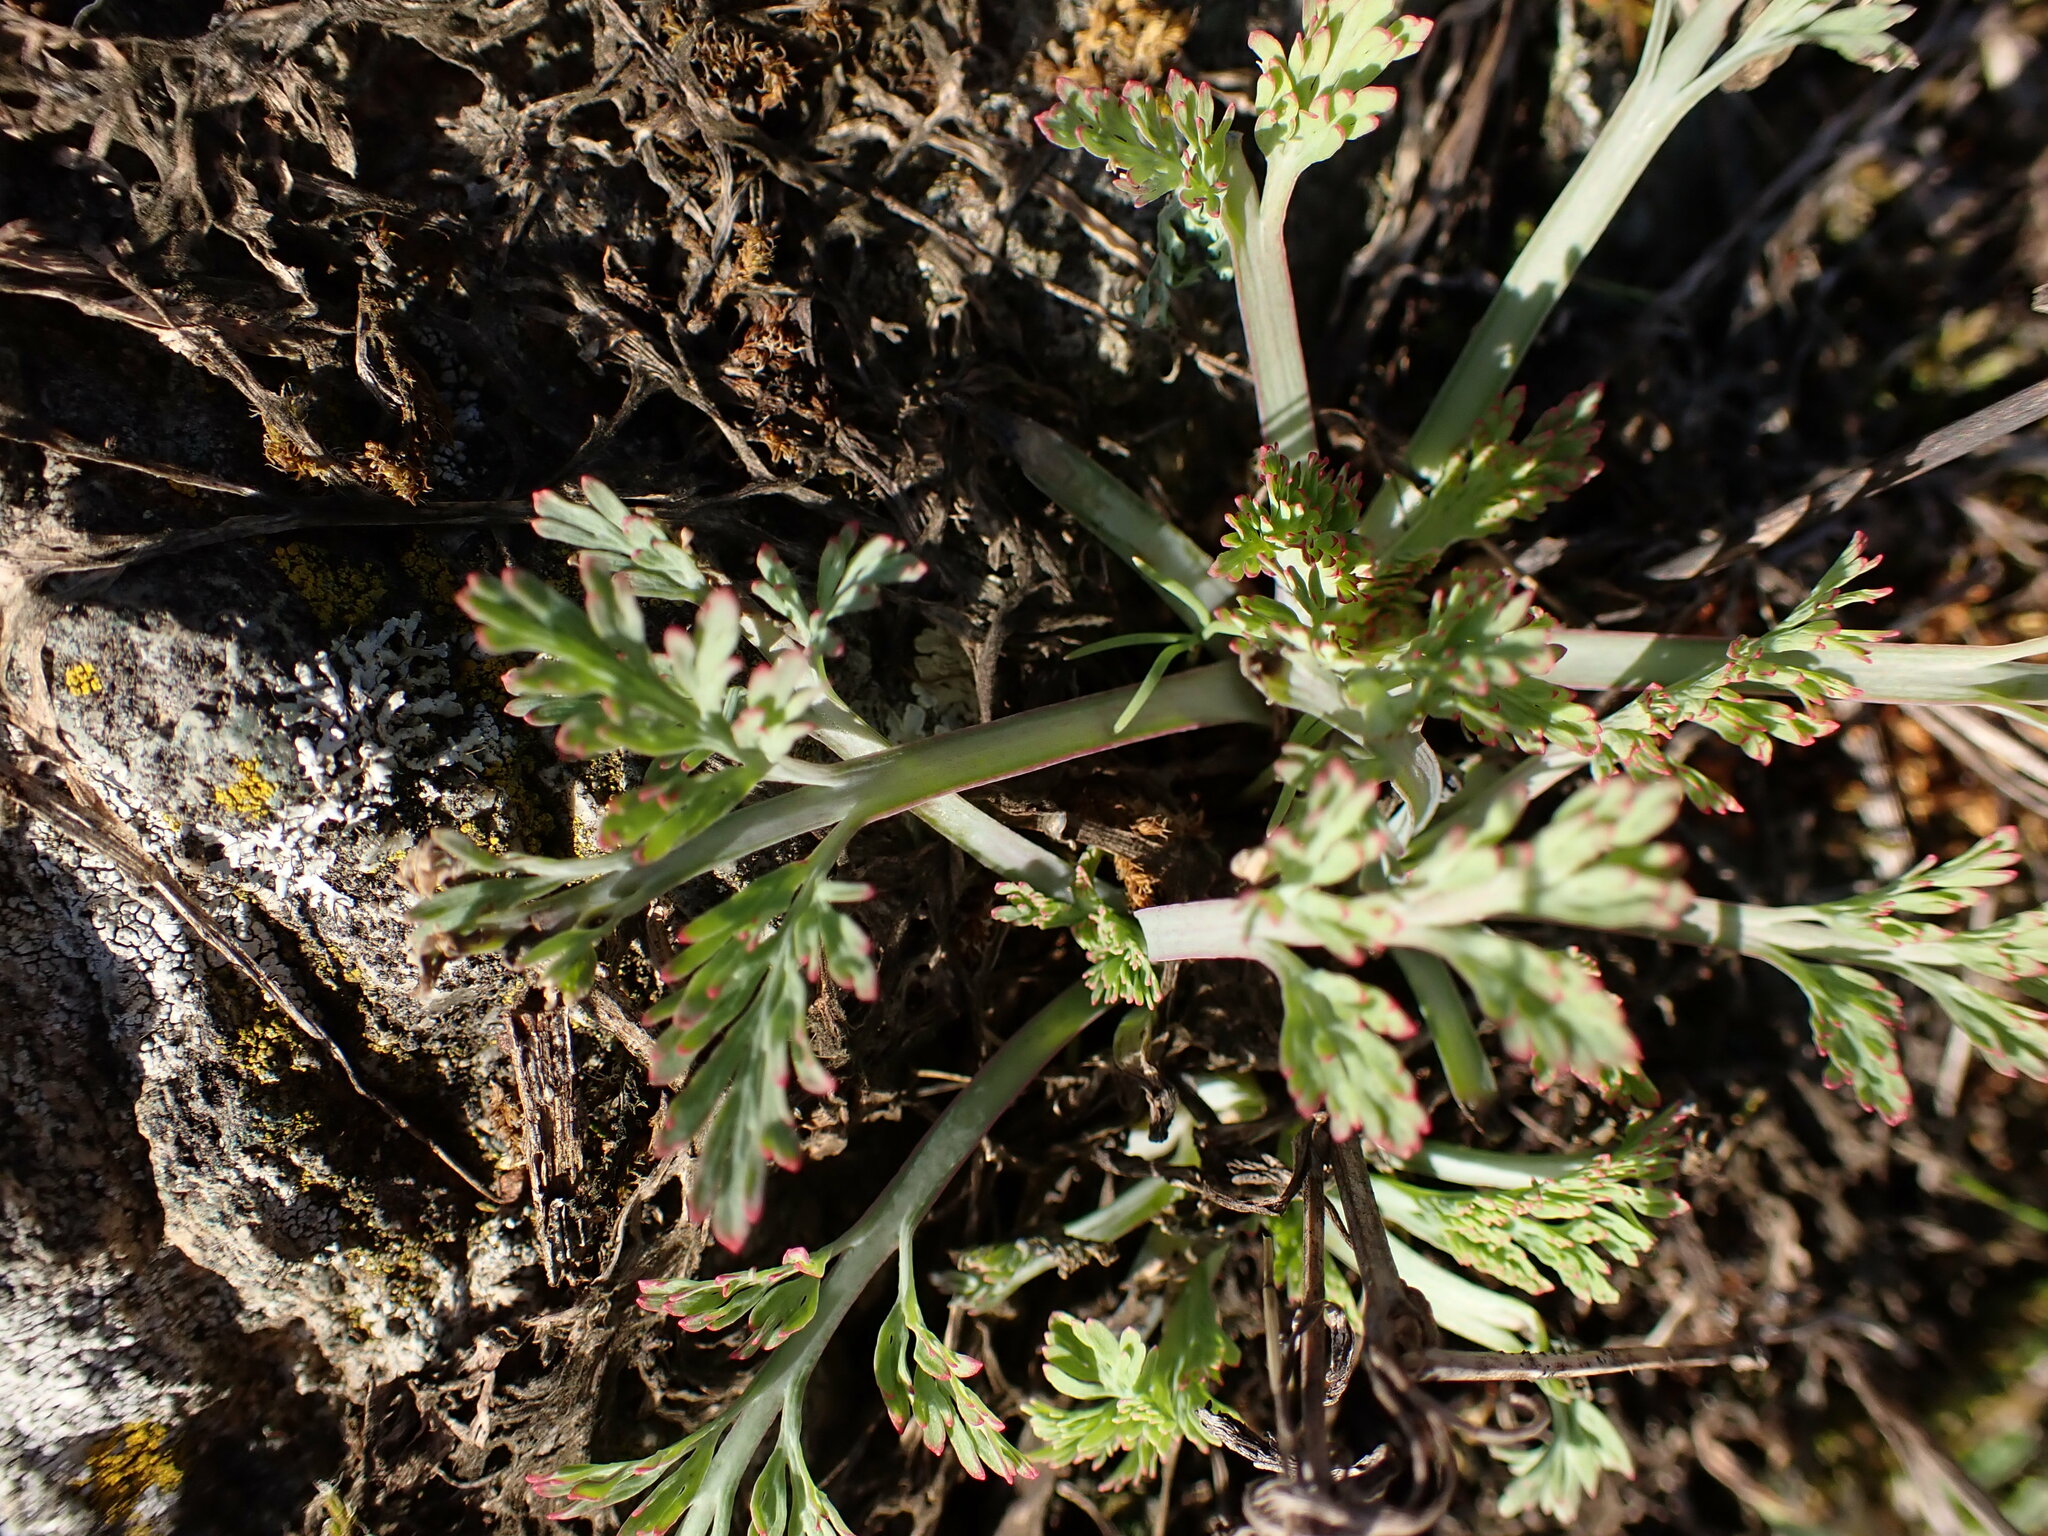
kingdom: Plantae
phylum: Tracheophyta
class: Magnoliopsida
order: Ranunculales
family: Papaveraceae
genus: Eschscholzia
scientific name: Eschscholzia californica
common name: California poppy
